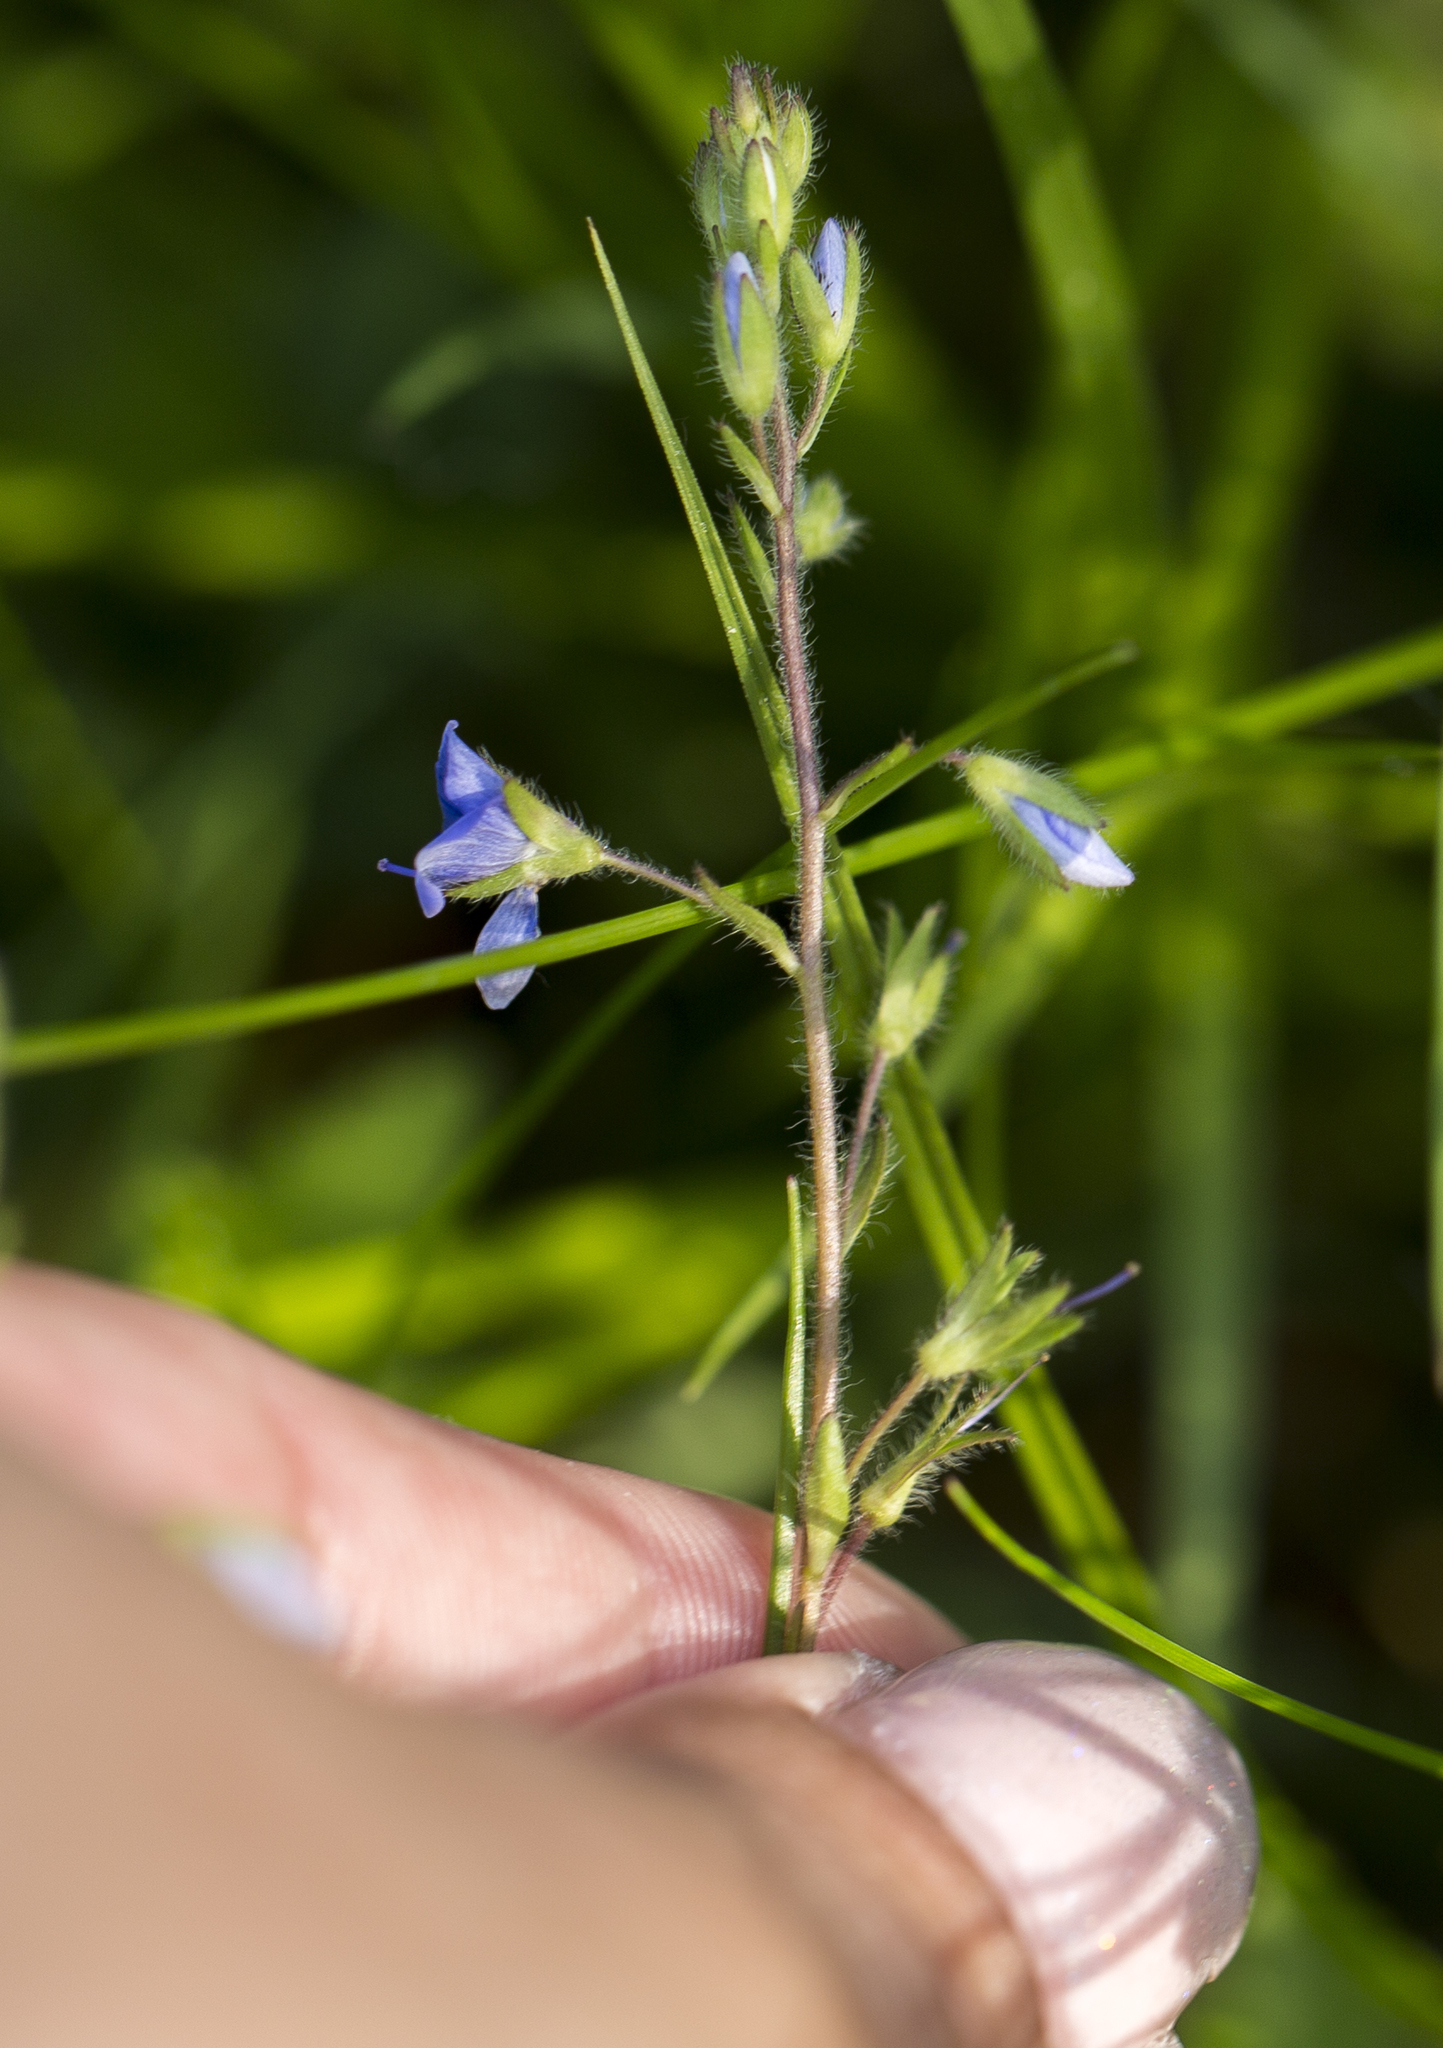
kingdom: Plantae
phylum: Tracheophyta
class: Magnoliopsida
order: Lamiales
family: Plantaginaceae
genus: Veronica
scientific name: Veronica chamaedrys
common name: Germander speedwell
